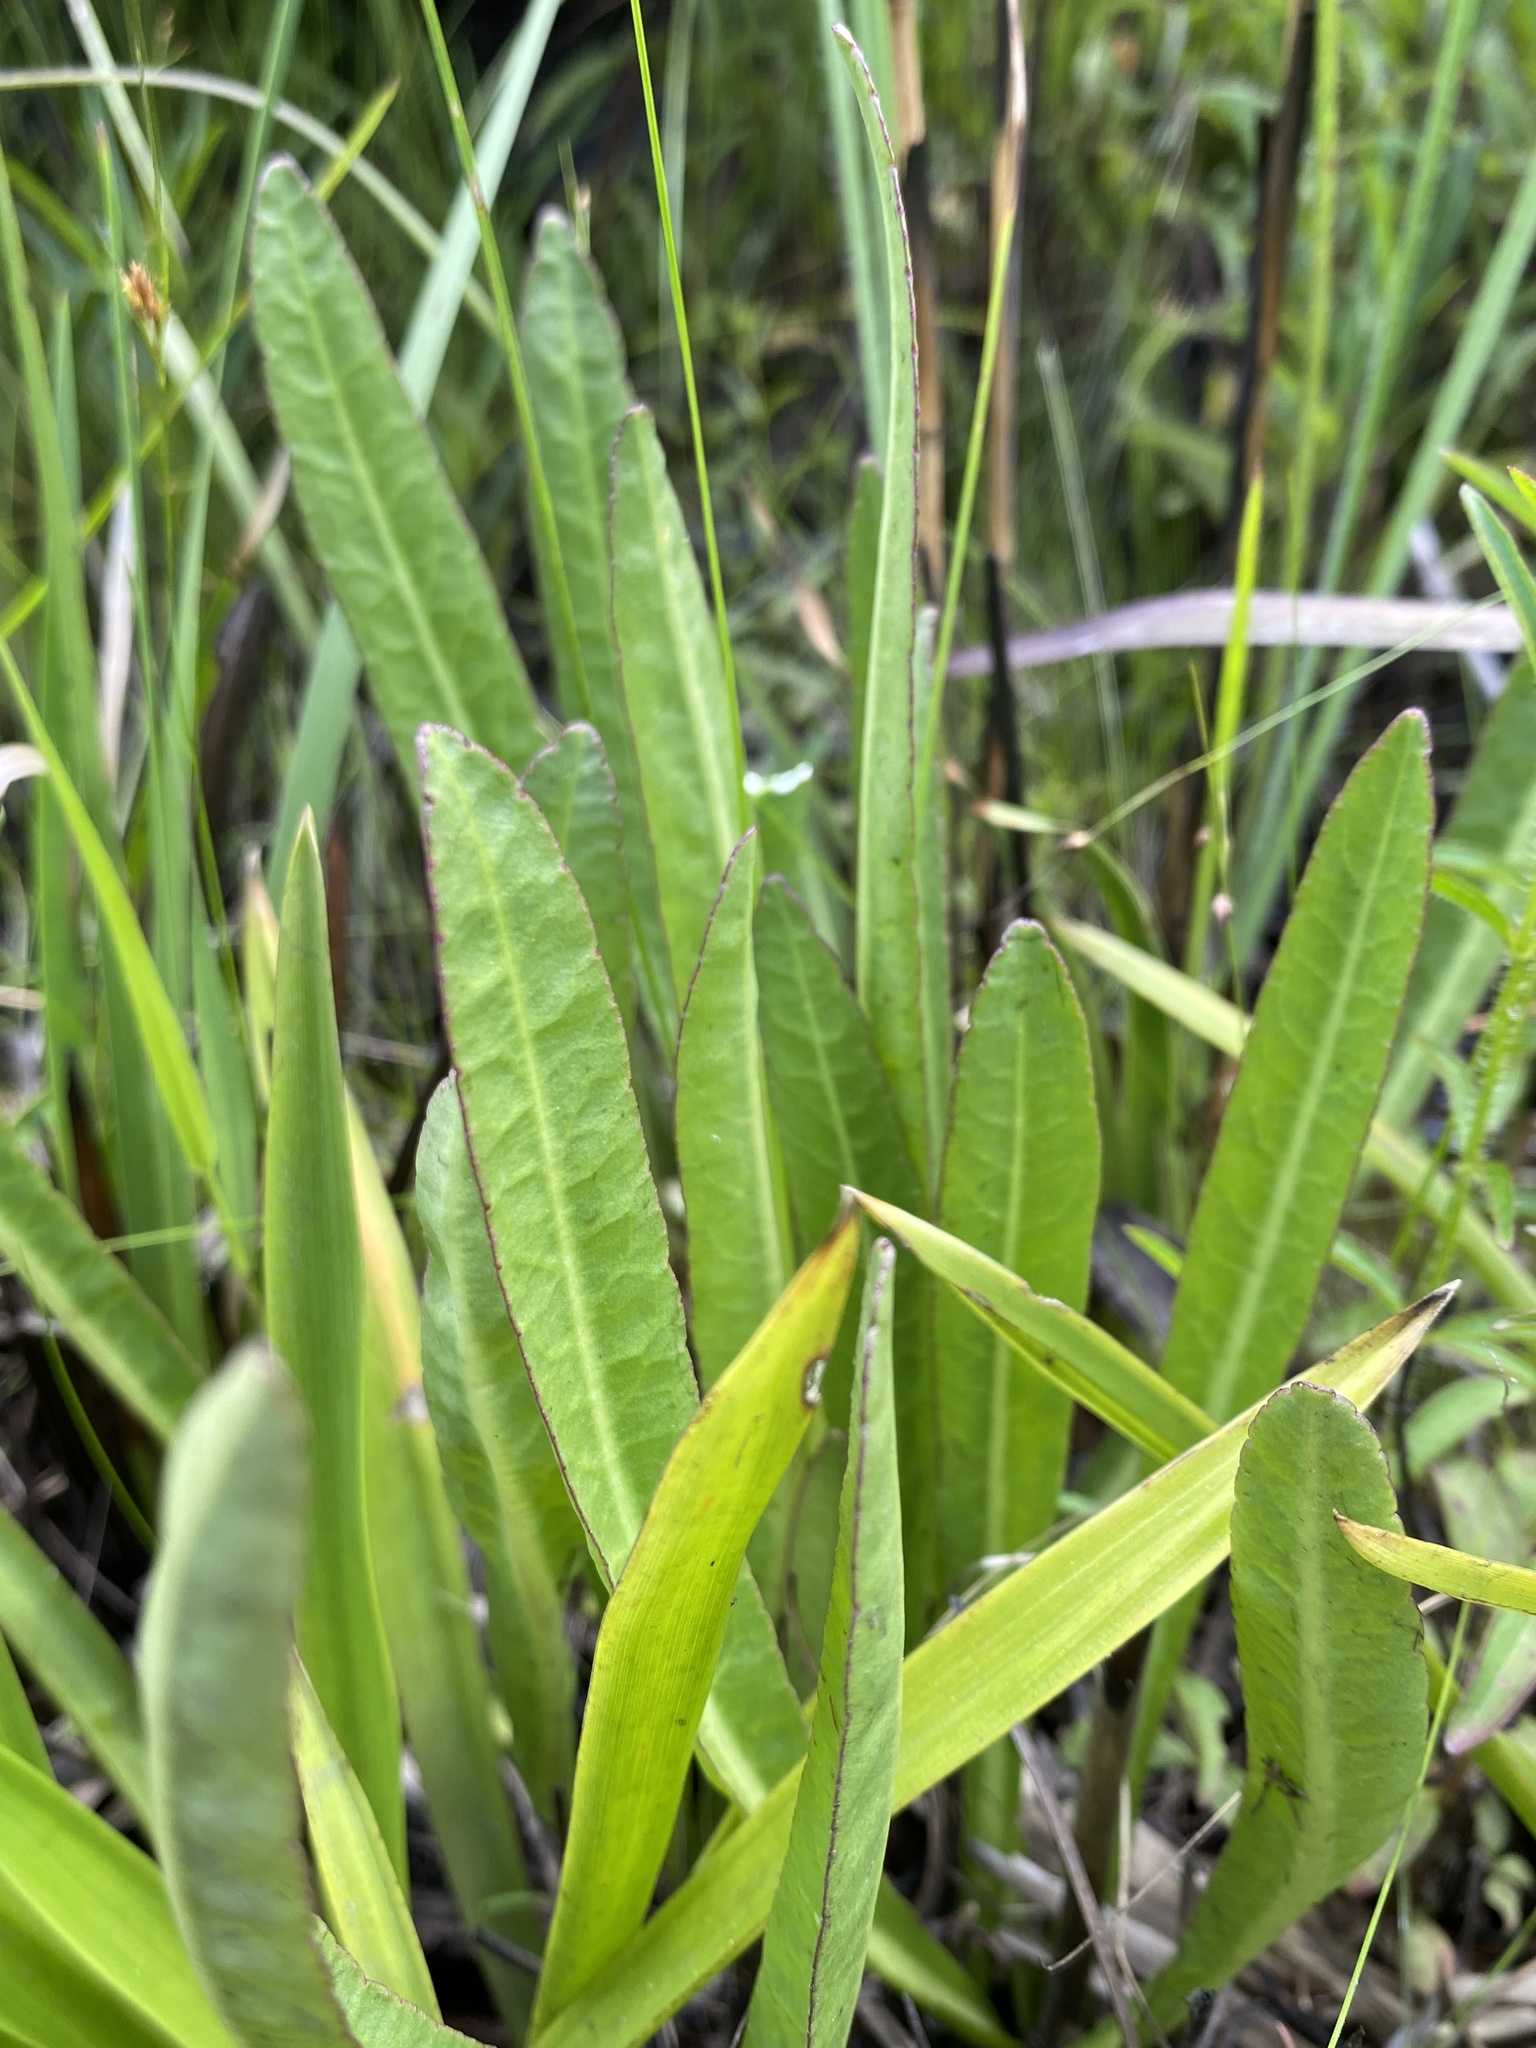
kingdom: Plantae
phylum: Tracheophyta
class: Magnoliopsida
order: Asterales
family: Campanulaceae
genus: Lobelia
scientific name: Lobelia floridana
